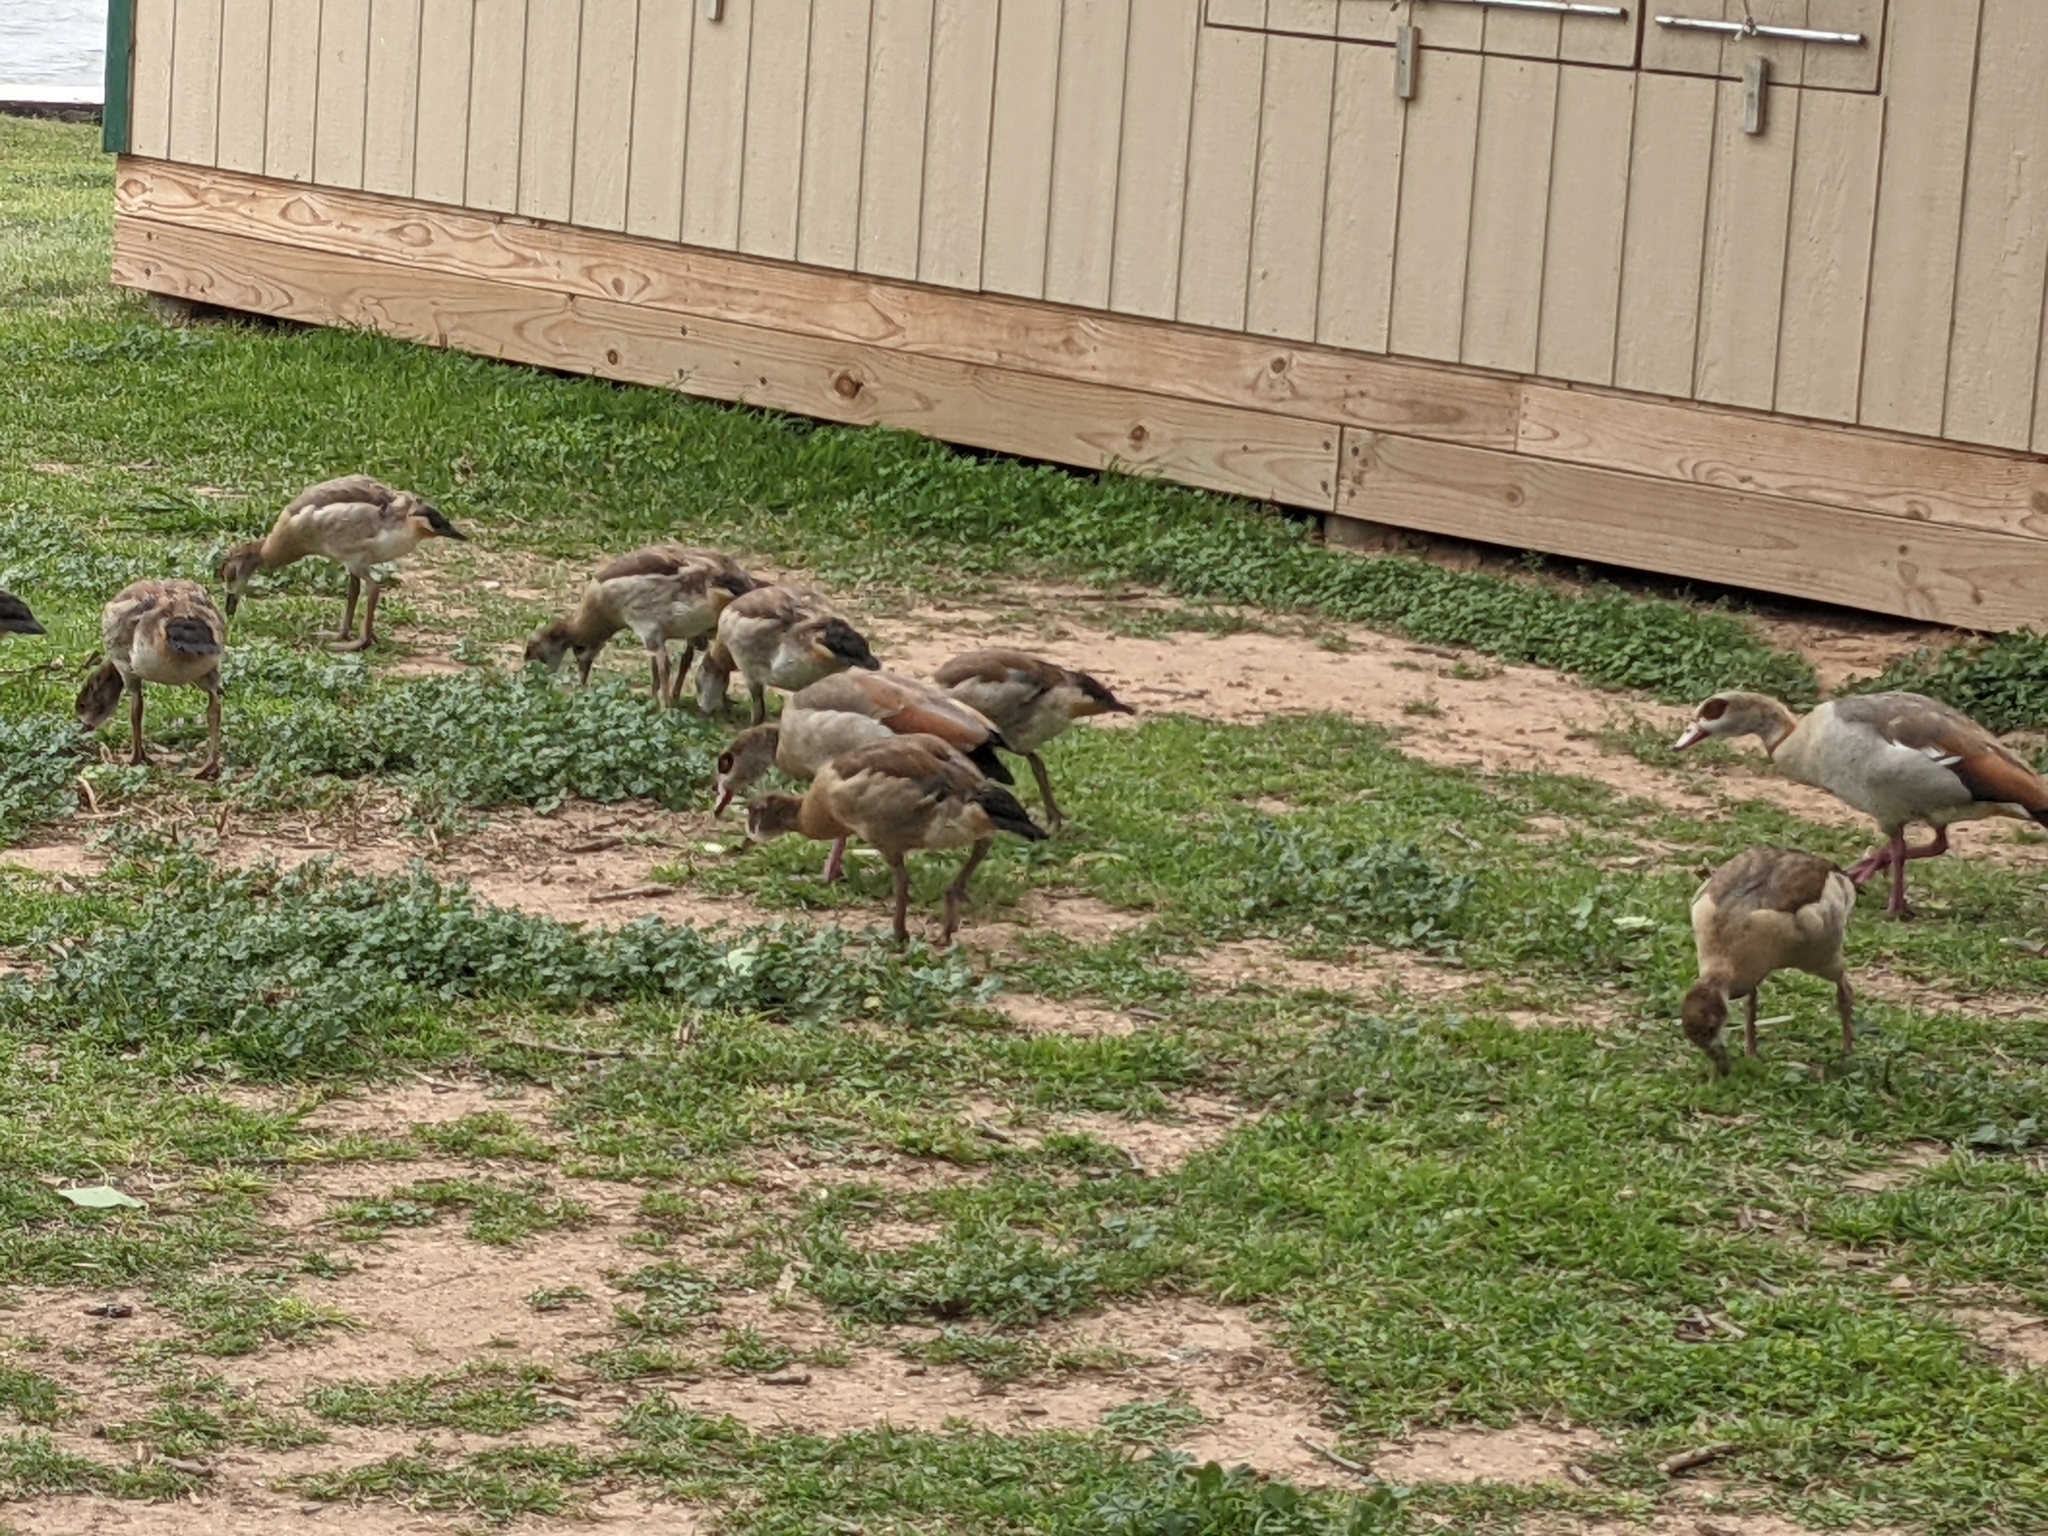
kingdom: Animalia
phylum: Chordata
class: Aves
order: Anseriformes
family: Anatidae
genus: Alopochen
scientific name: Alopochen aegyptiaca
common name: Egyptian goose
